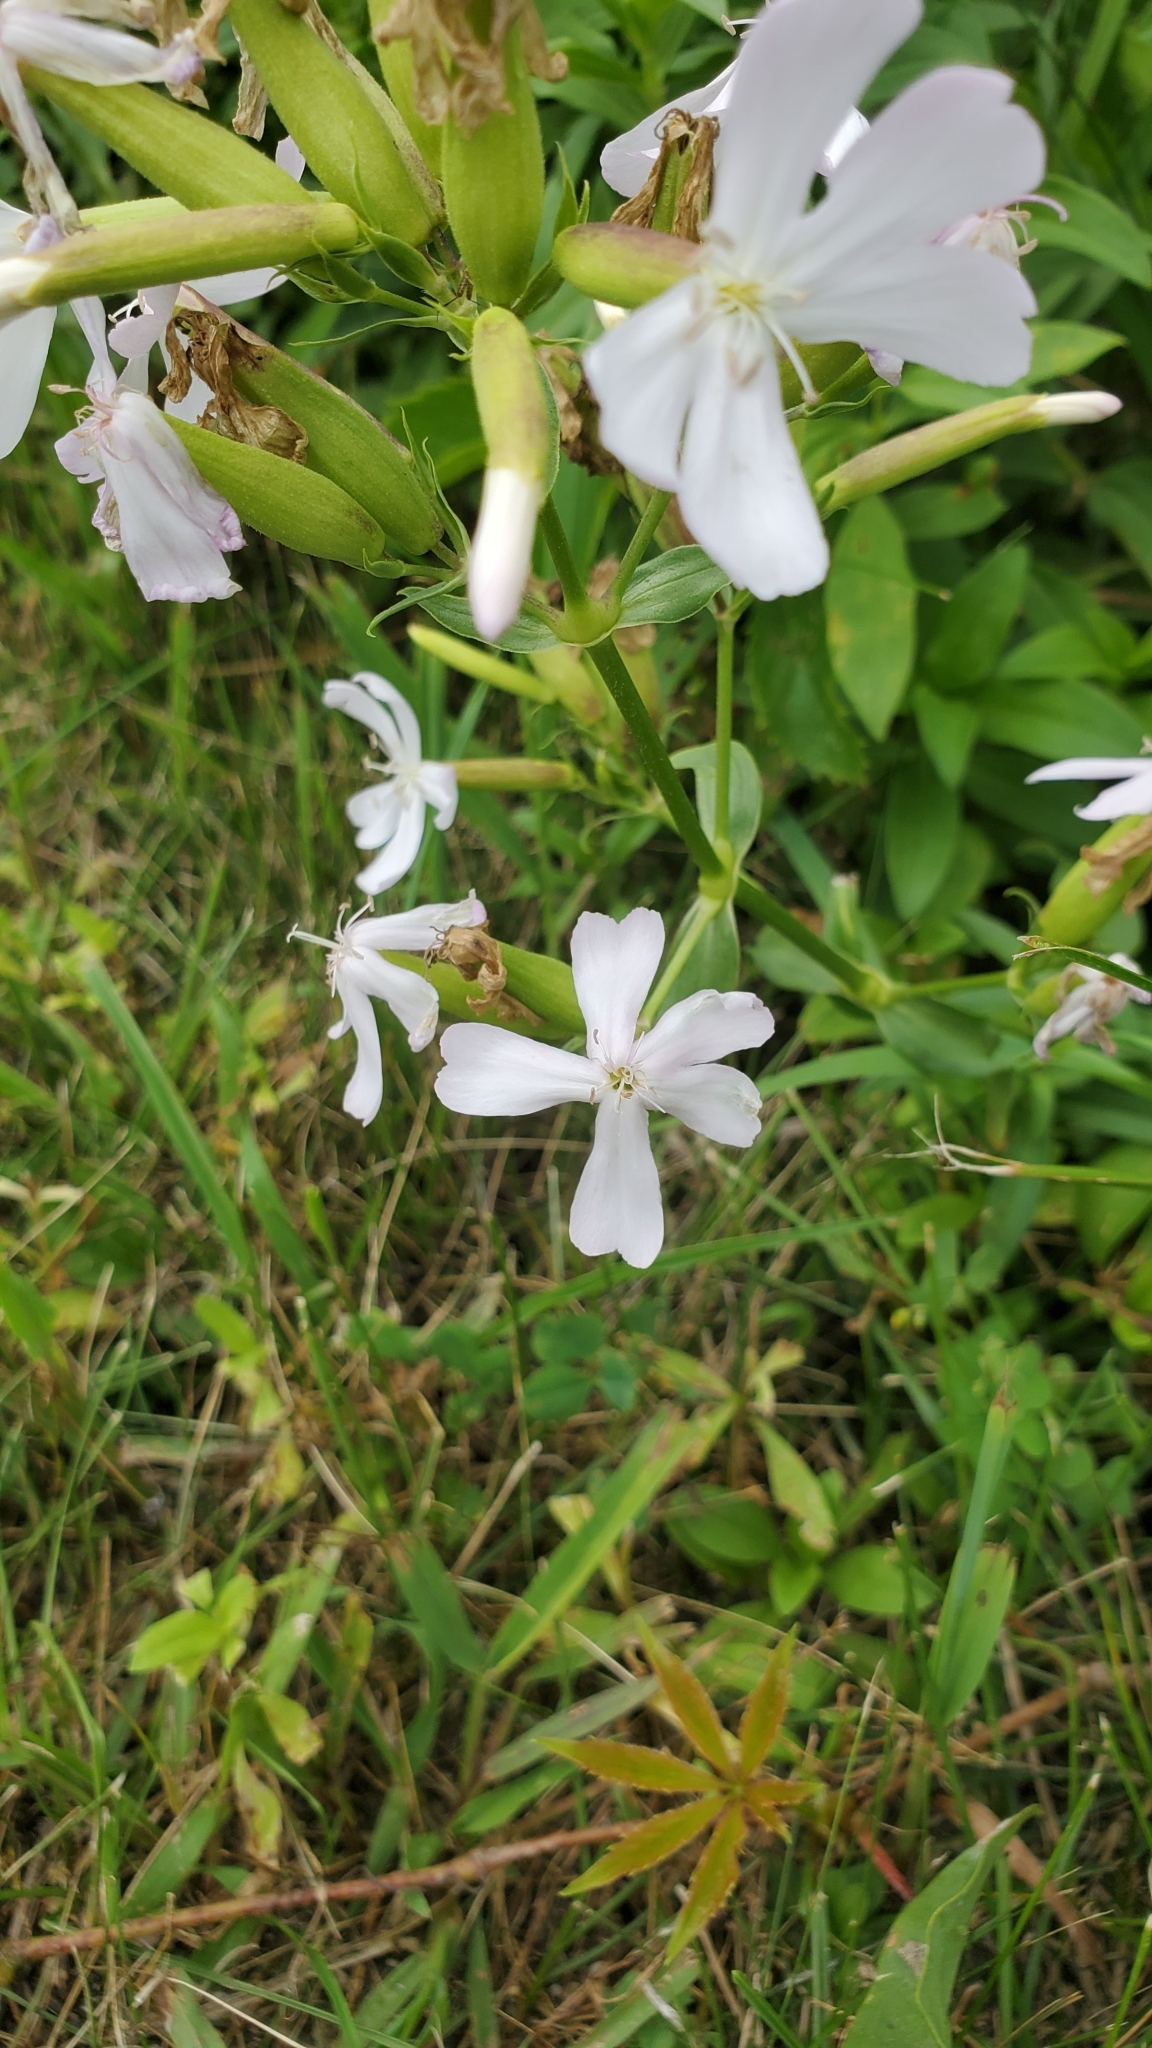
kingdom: Plantae
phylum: Tracheophyta
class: Magnoliopsida
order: Caryophyllales
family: Caryophyllaceae
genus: Saponaria
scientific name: Saponaria officinalis
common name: Soapwort
